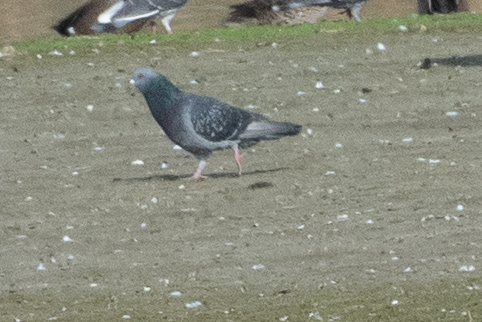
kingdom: Animalia
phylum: Chordata
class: Aves
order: Columbiformes
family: Columbidae
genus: Columba
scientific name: Columba livia
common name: Rock pigeon
